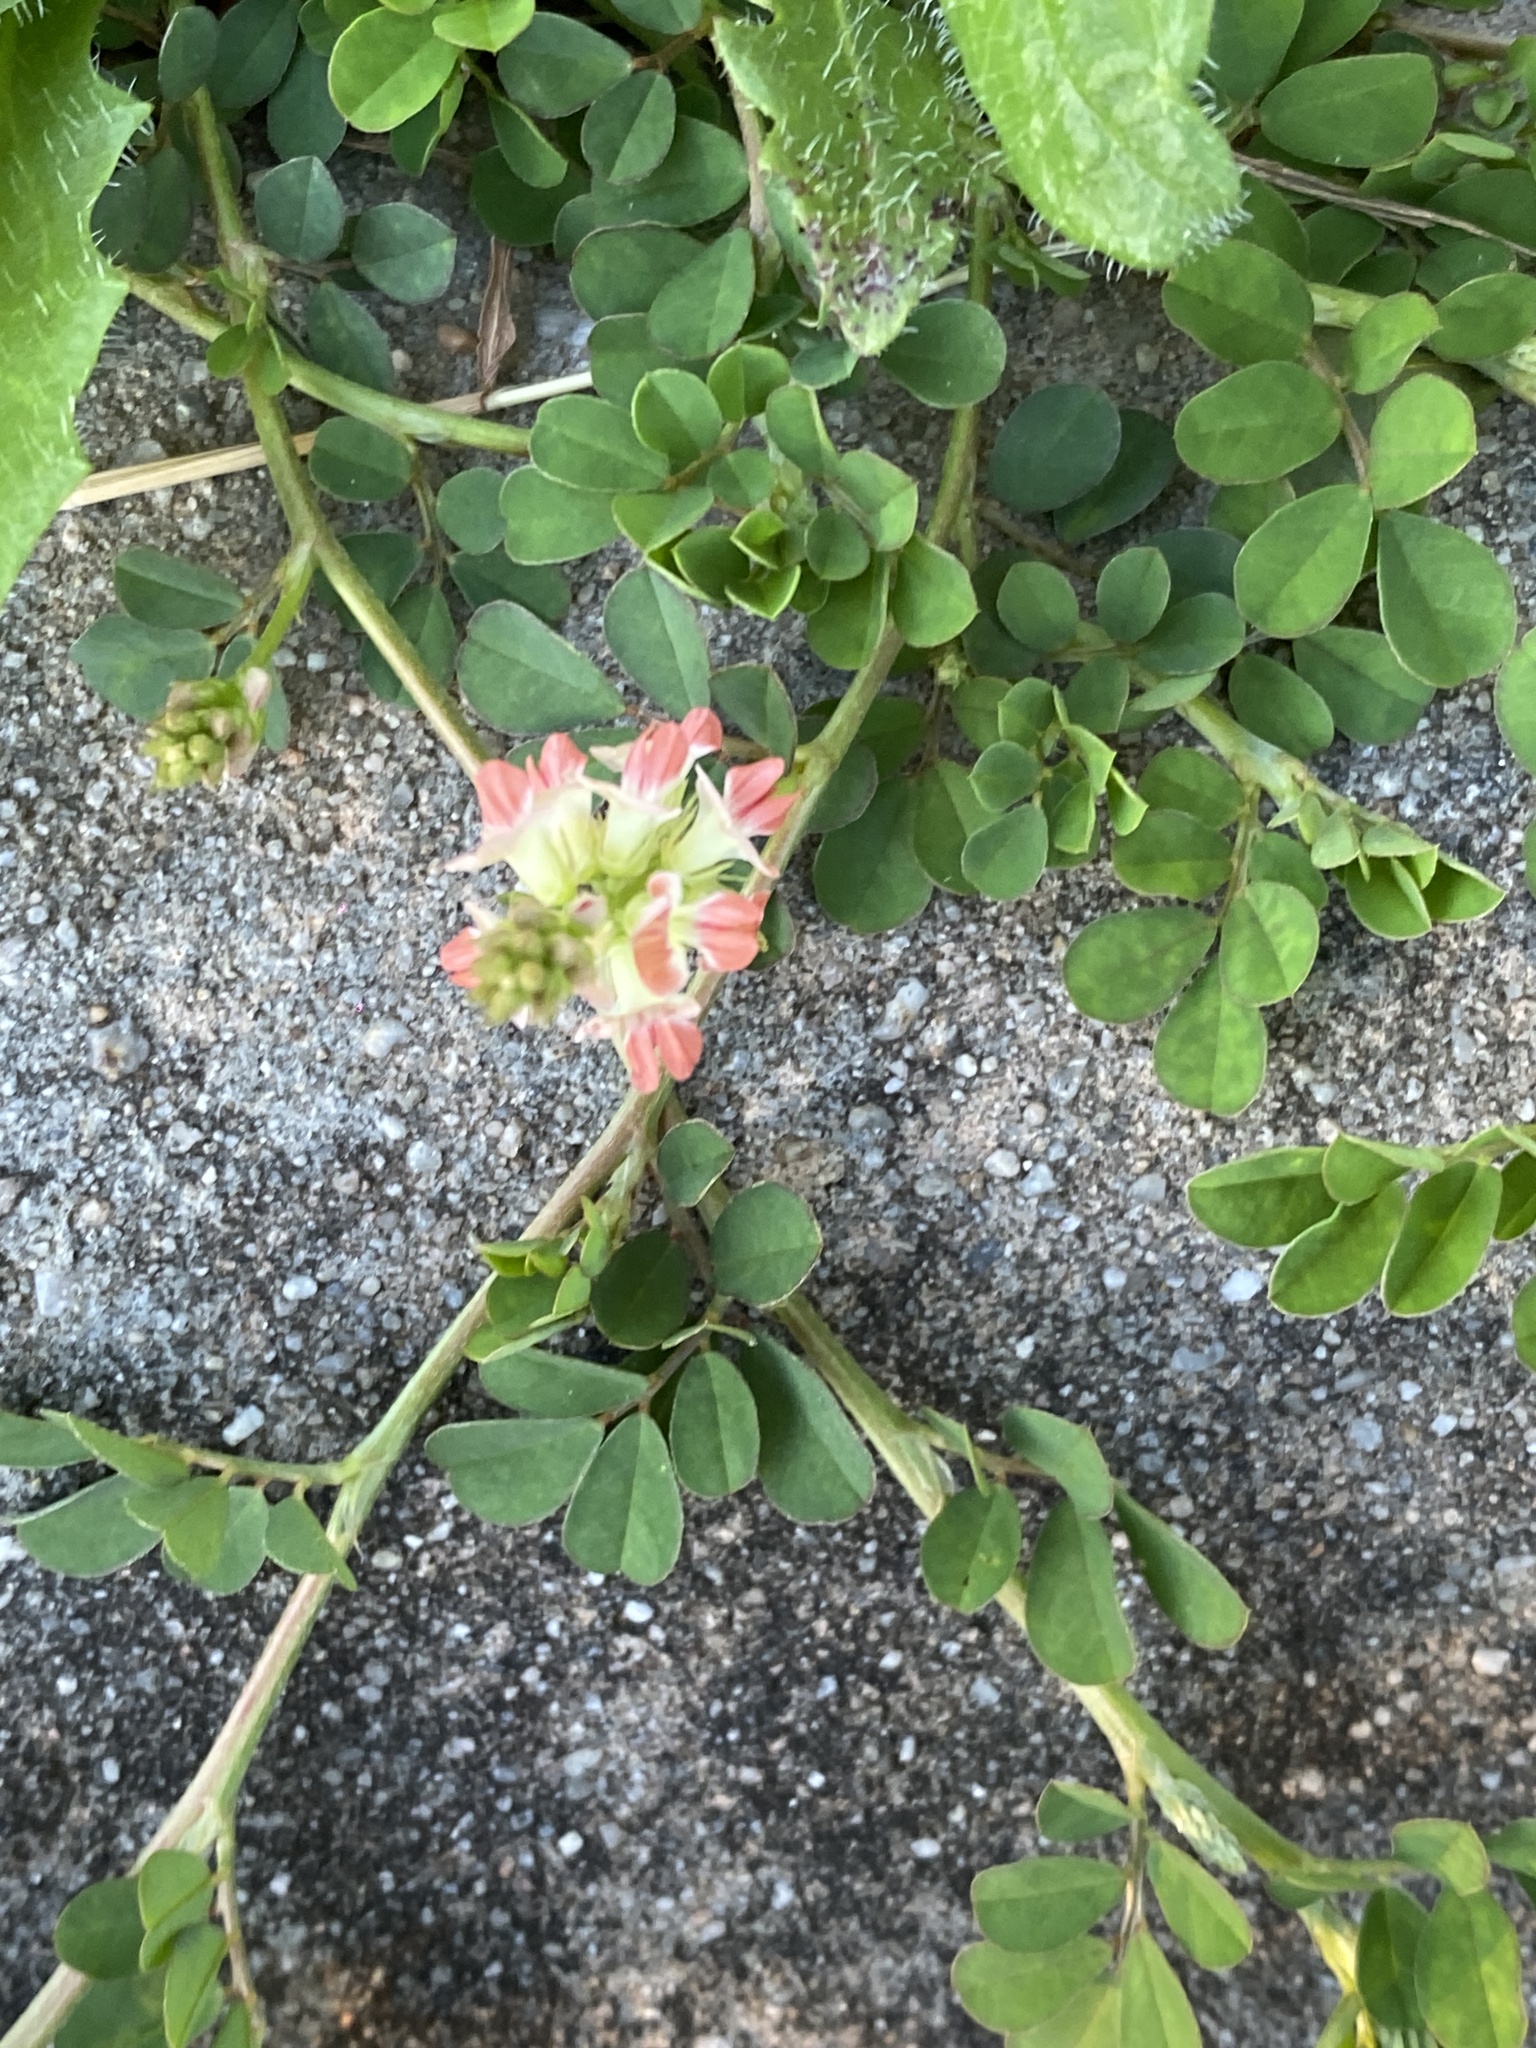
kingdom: Plantae
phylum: Tracheophyta
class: Magnoliopsida
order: Fabales
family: Fabaceae
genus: Indigofera
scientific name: Indigofera spicata
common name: Creeping indigo
